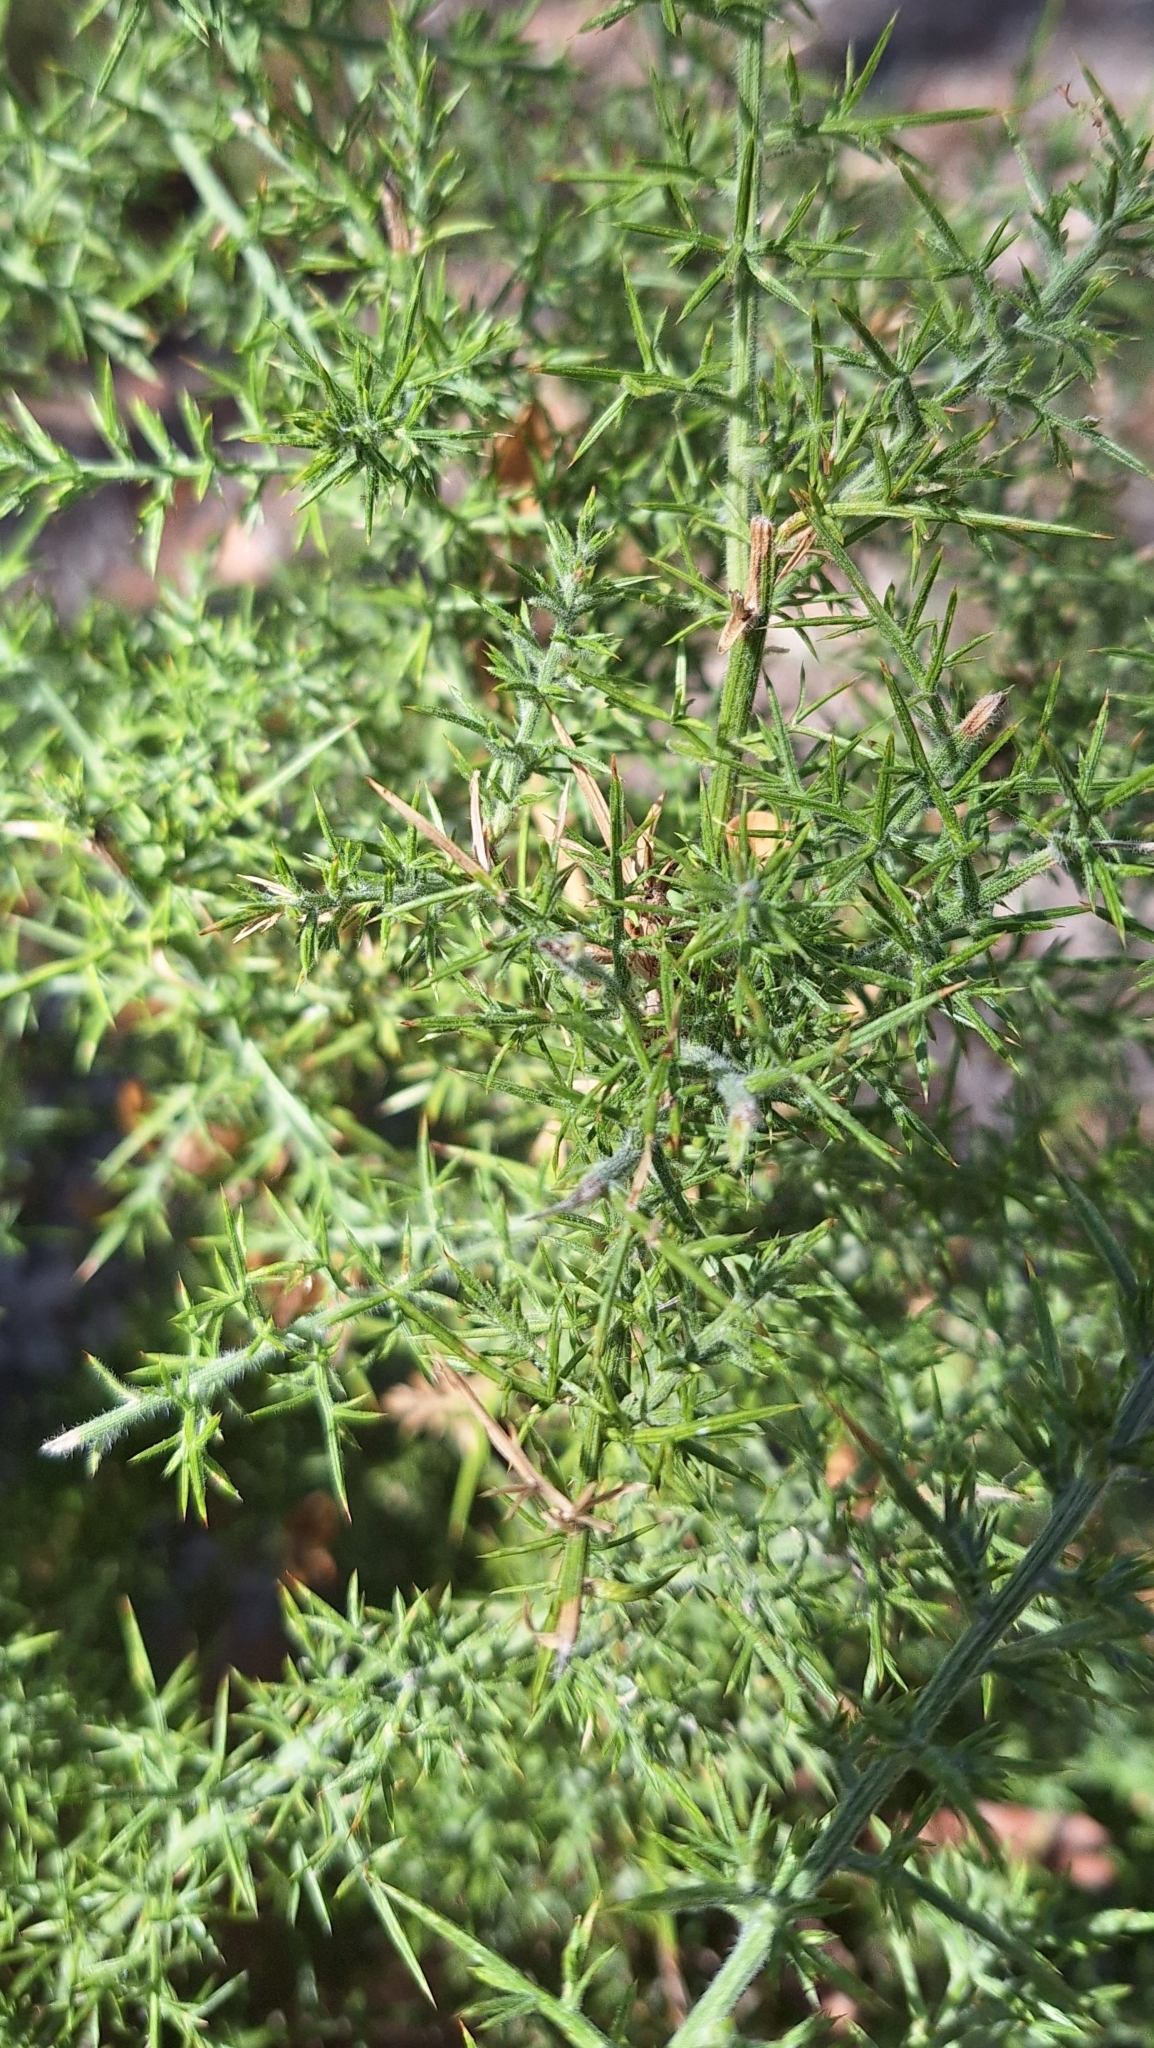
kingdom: Plantae
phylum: Tracheophyta
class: Magnoliopsida
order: Fabales
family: Fabaceae
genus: Ulex
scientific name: Ulex europaeus
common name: Common gorse
